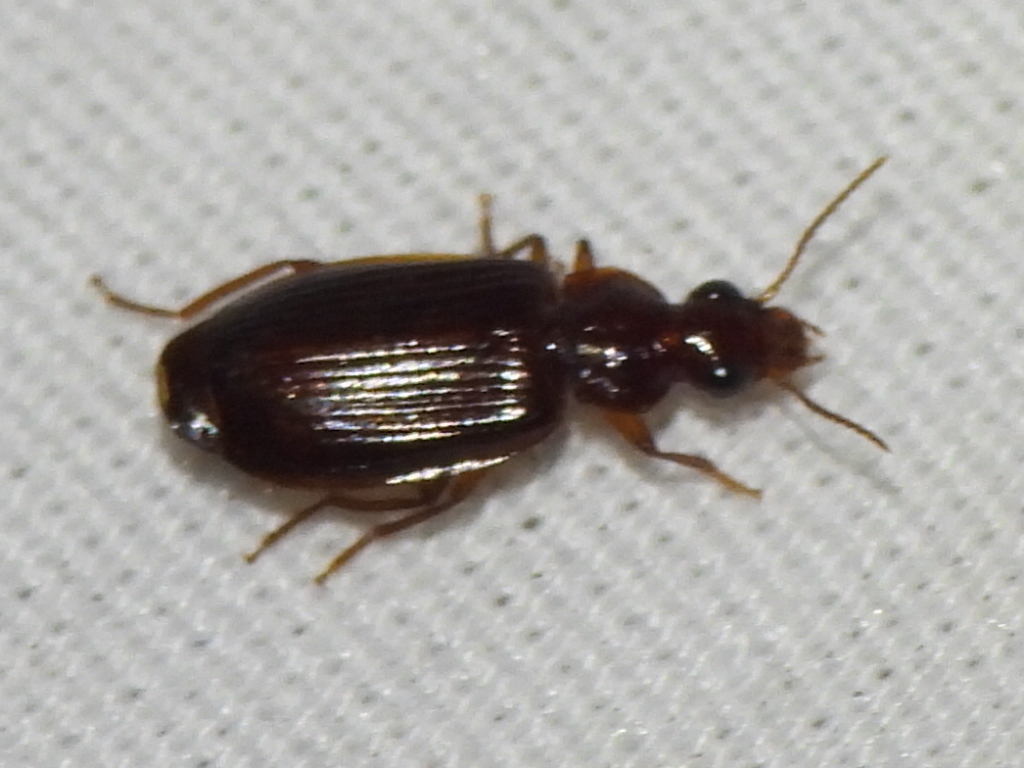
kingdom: Animalia
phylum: Arthropoda
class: Insecta
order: Coleoptera
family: Carabidae
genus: Plochionus
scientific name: Plochionus timidus
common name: Timid harp ground beetle
